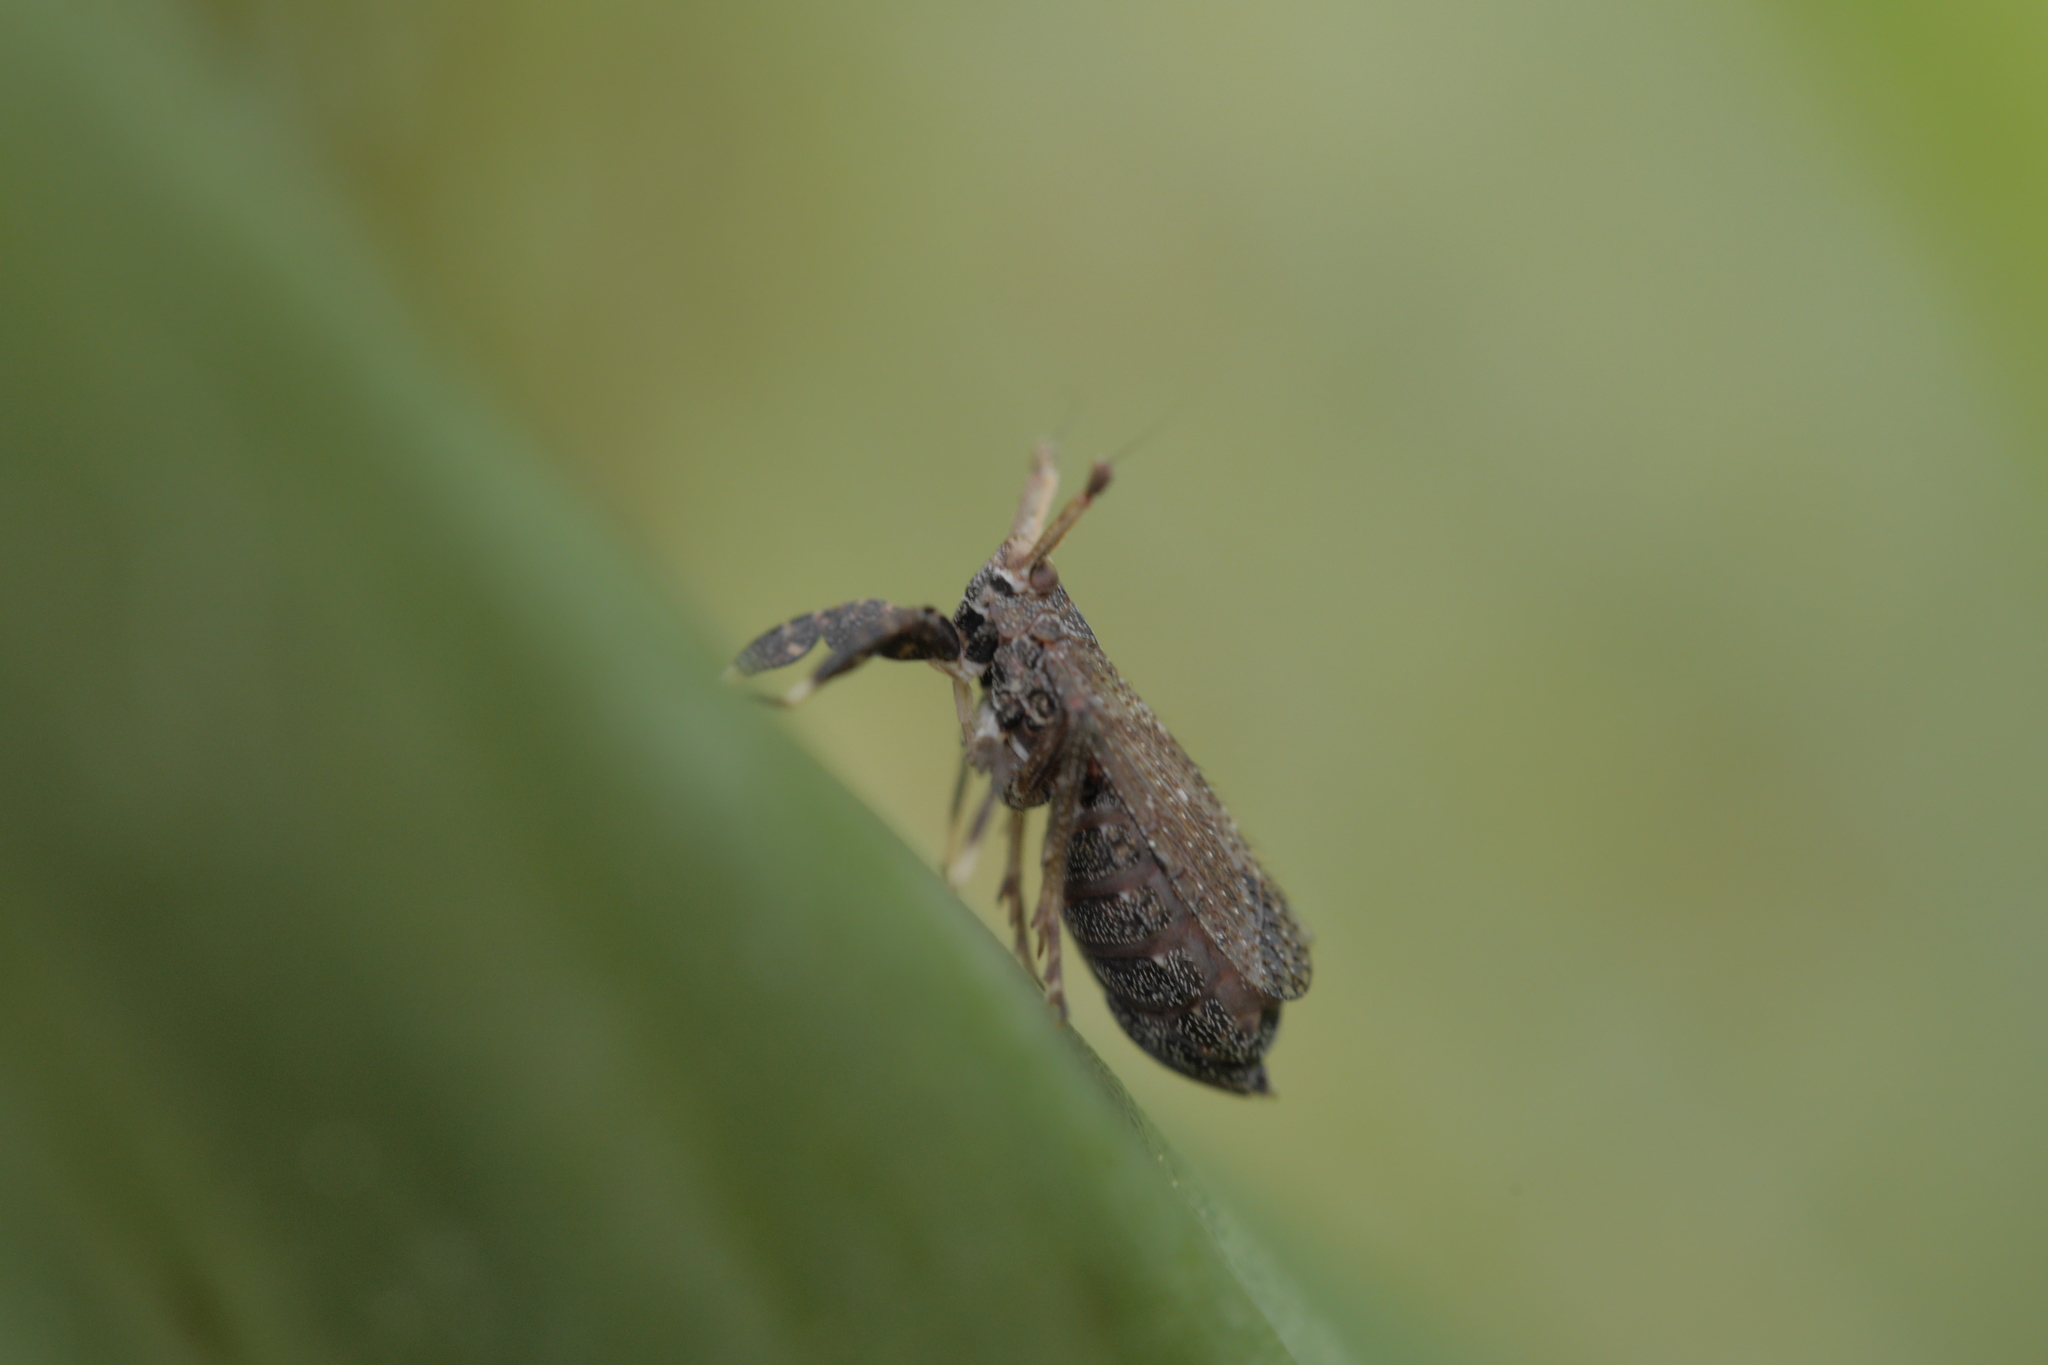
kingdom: Animalia
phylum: Arthropoda
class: Insecta
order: Hemiptera
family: Delphacidae
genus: Asiraca
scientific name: Asiraca clavicornis
